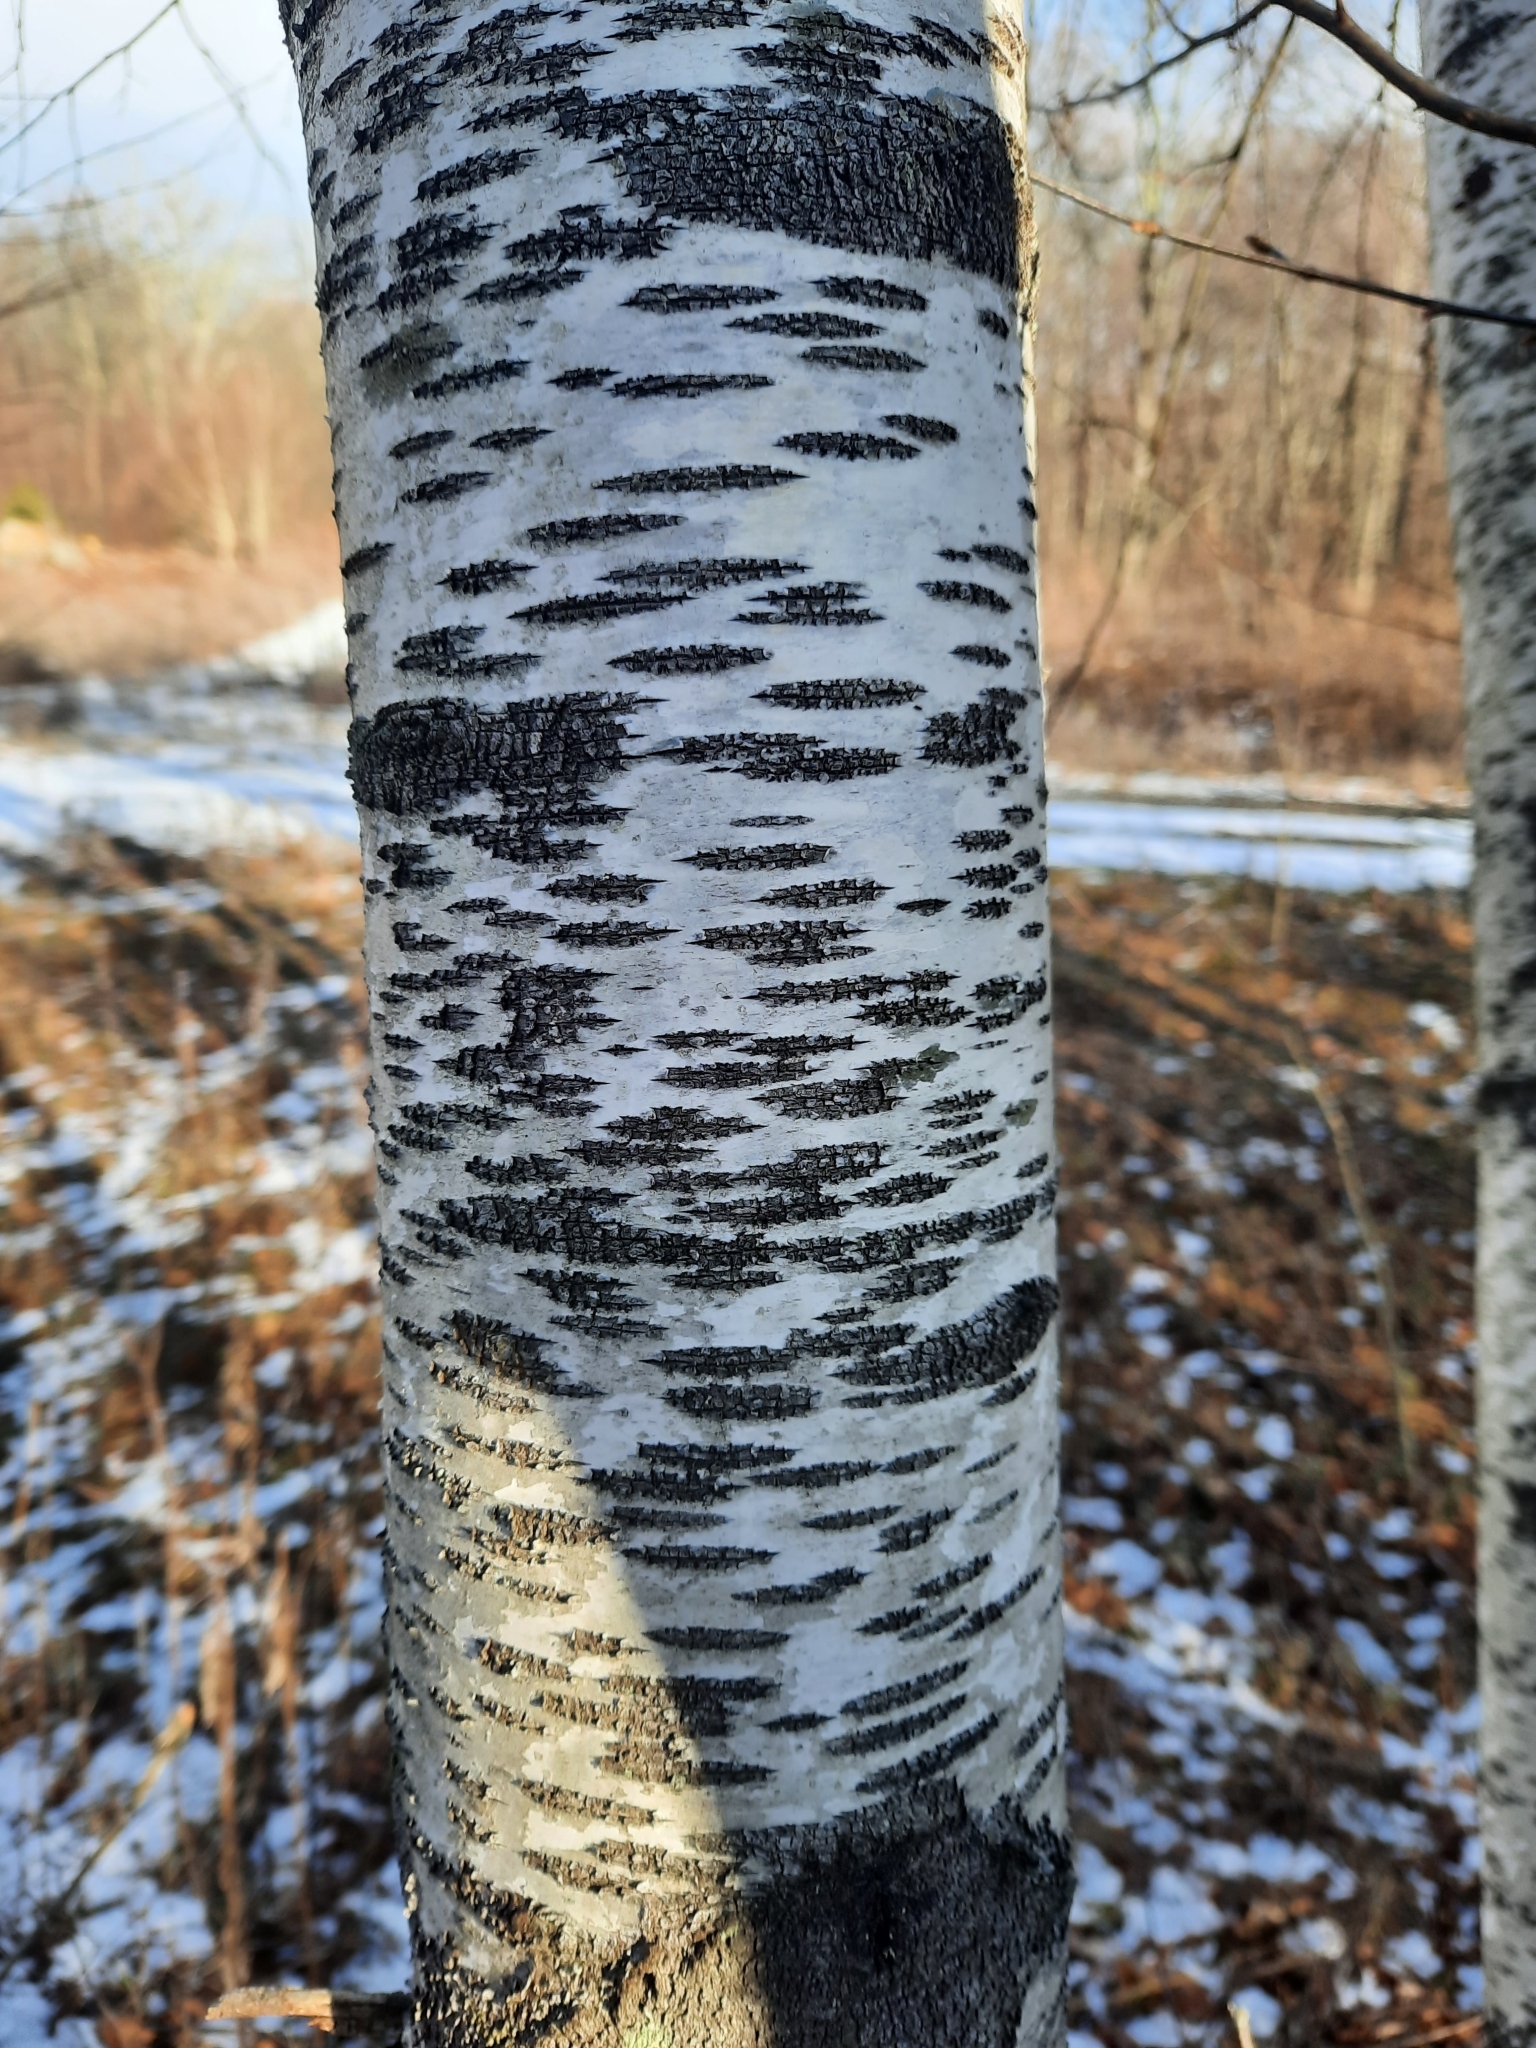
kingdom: Plantae
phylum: Tracheophyta
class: Magnoliopsida
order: Fagales
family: Betulaceae
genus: Betula
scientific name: Betula populifolia
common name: Fire birch
